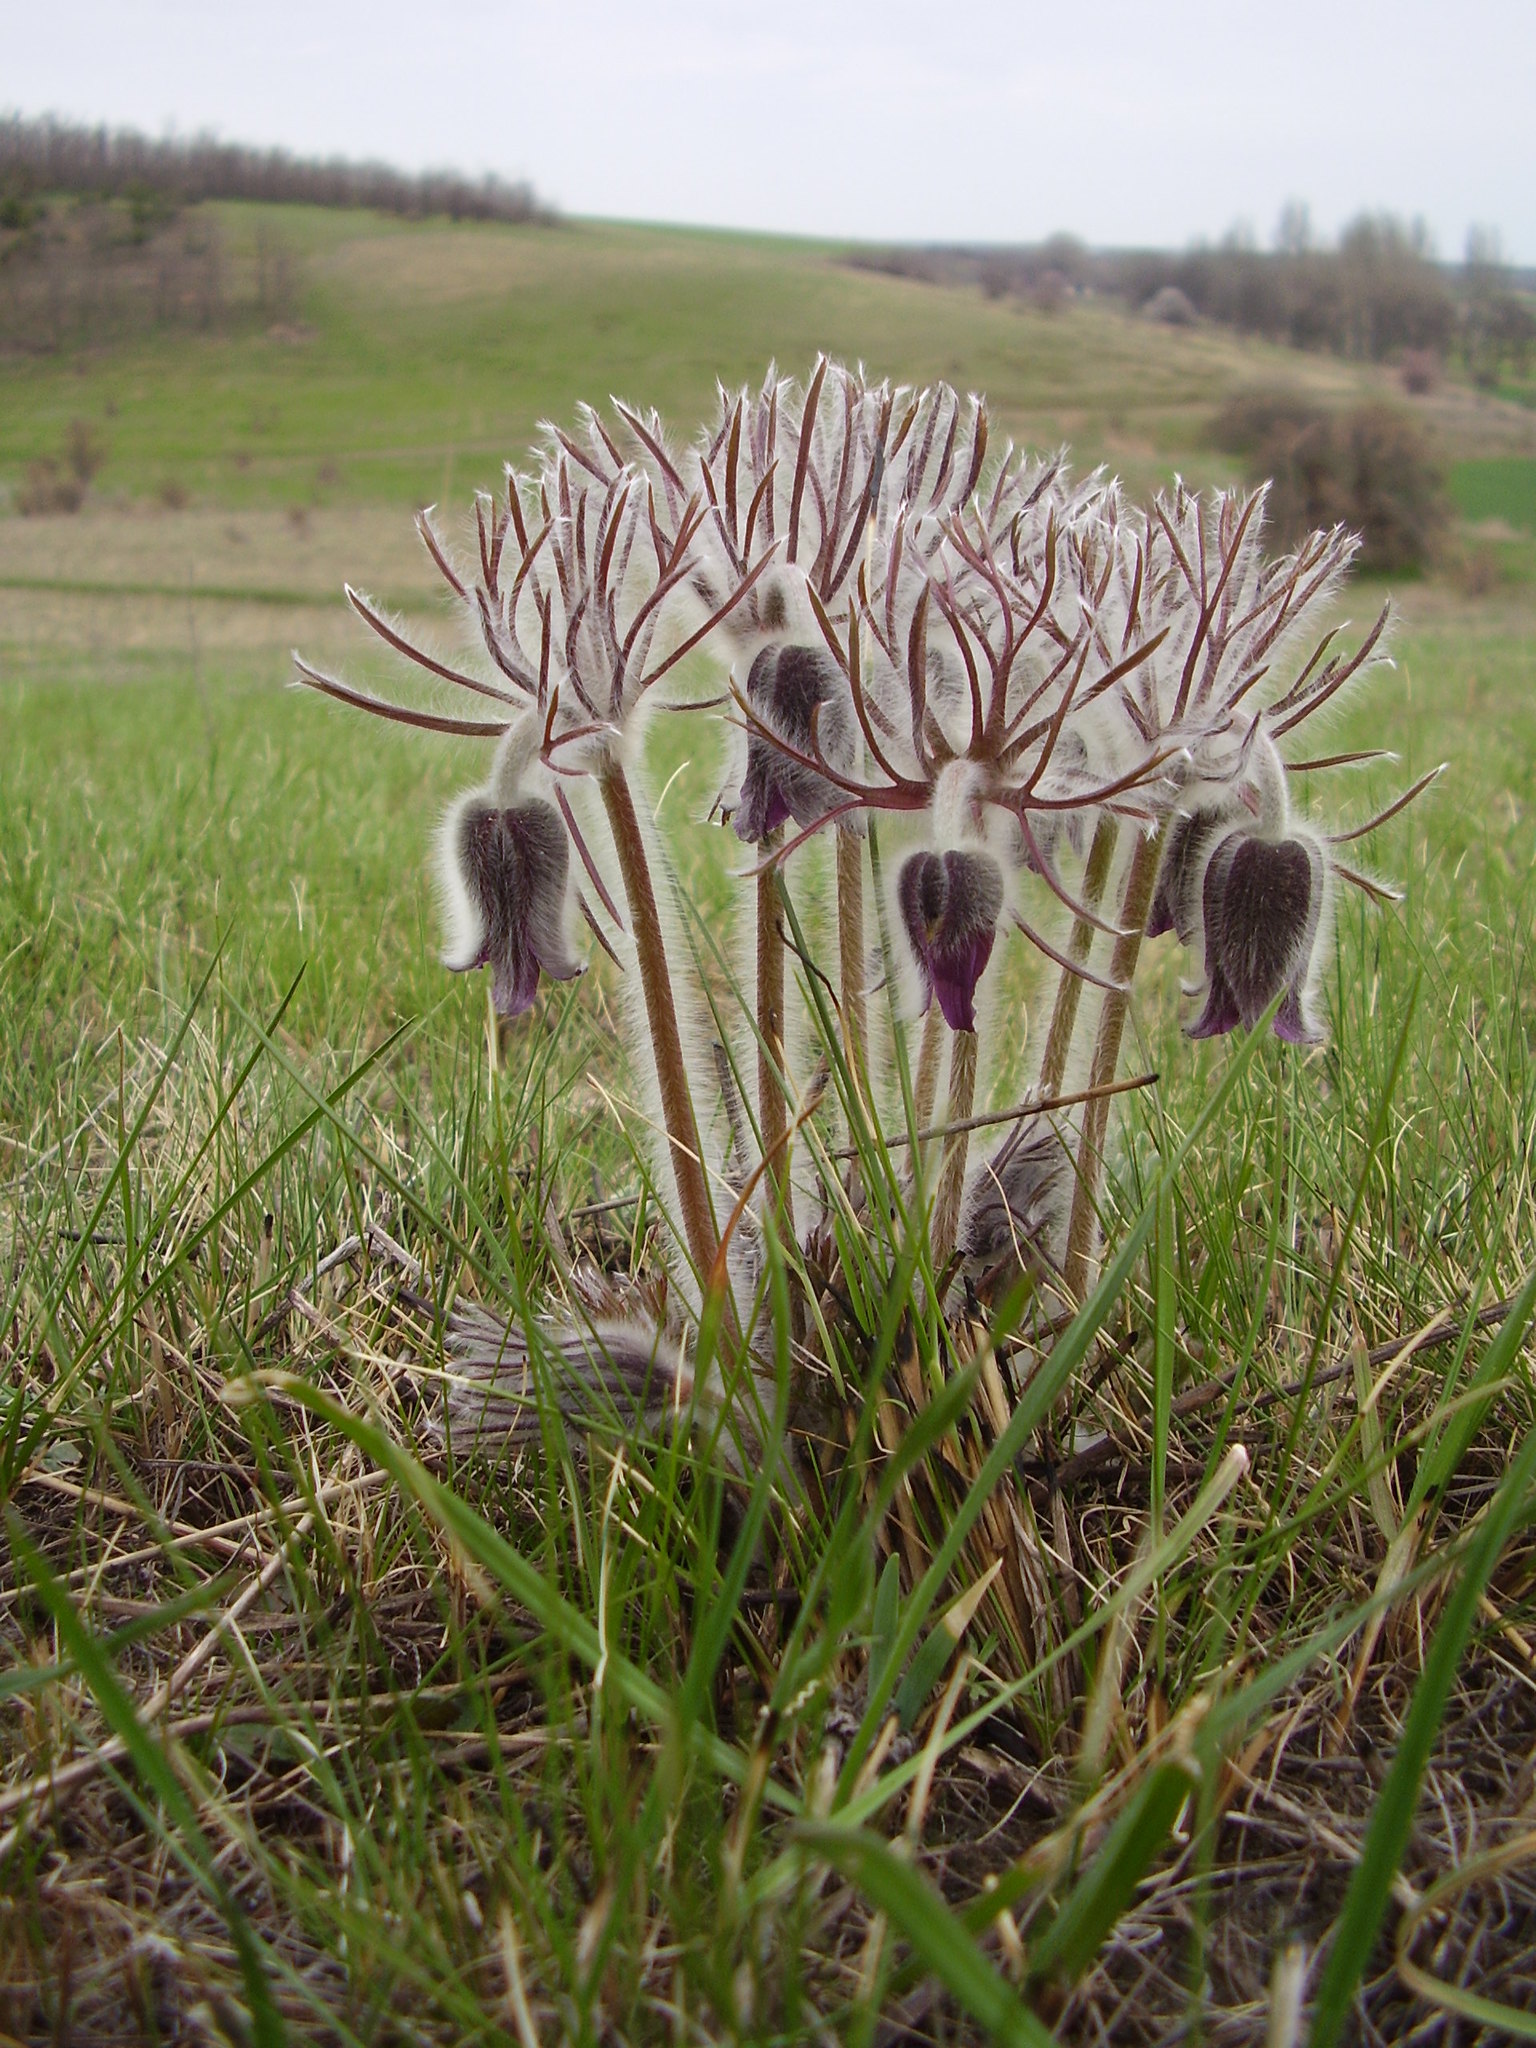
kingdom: Plantae
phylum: Tracheophyta
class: Magnoliopsida
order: Ranunculales
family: Ranunculaceae
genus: Pulsatilla
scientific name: Pulsatilla pratensis
